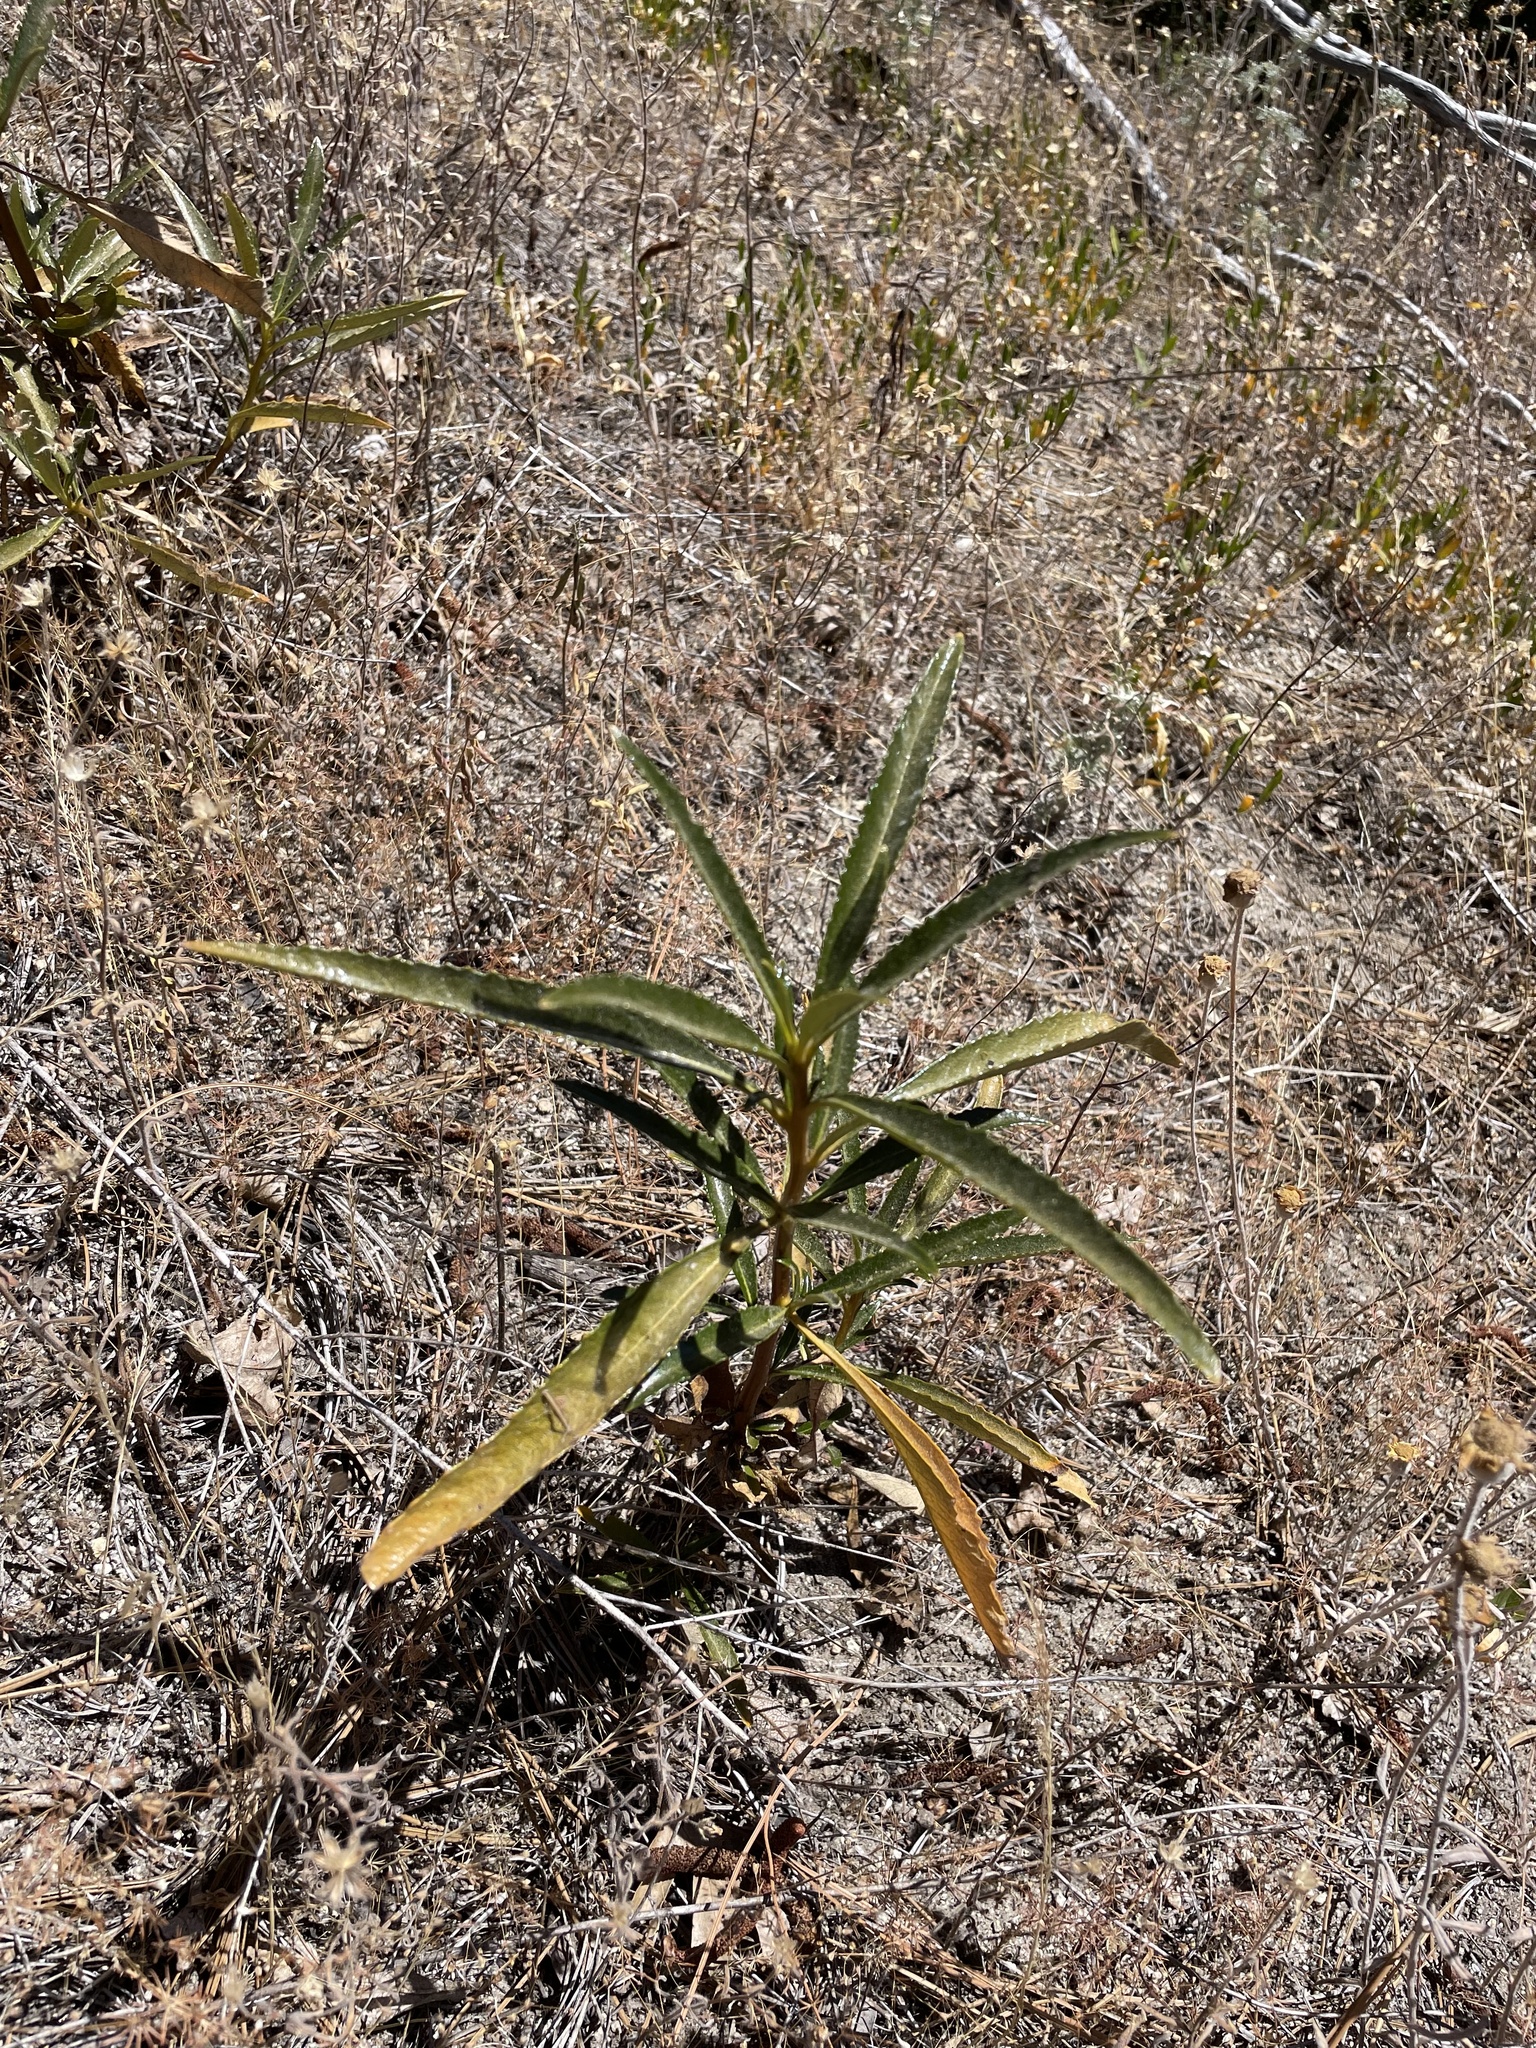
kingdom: Plantae
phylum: Tracheophyta
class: Magnoliopsida
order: Boraginales
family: Namaceae
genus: Eriodictyon
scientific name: Eriodictyon californicum
